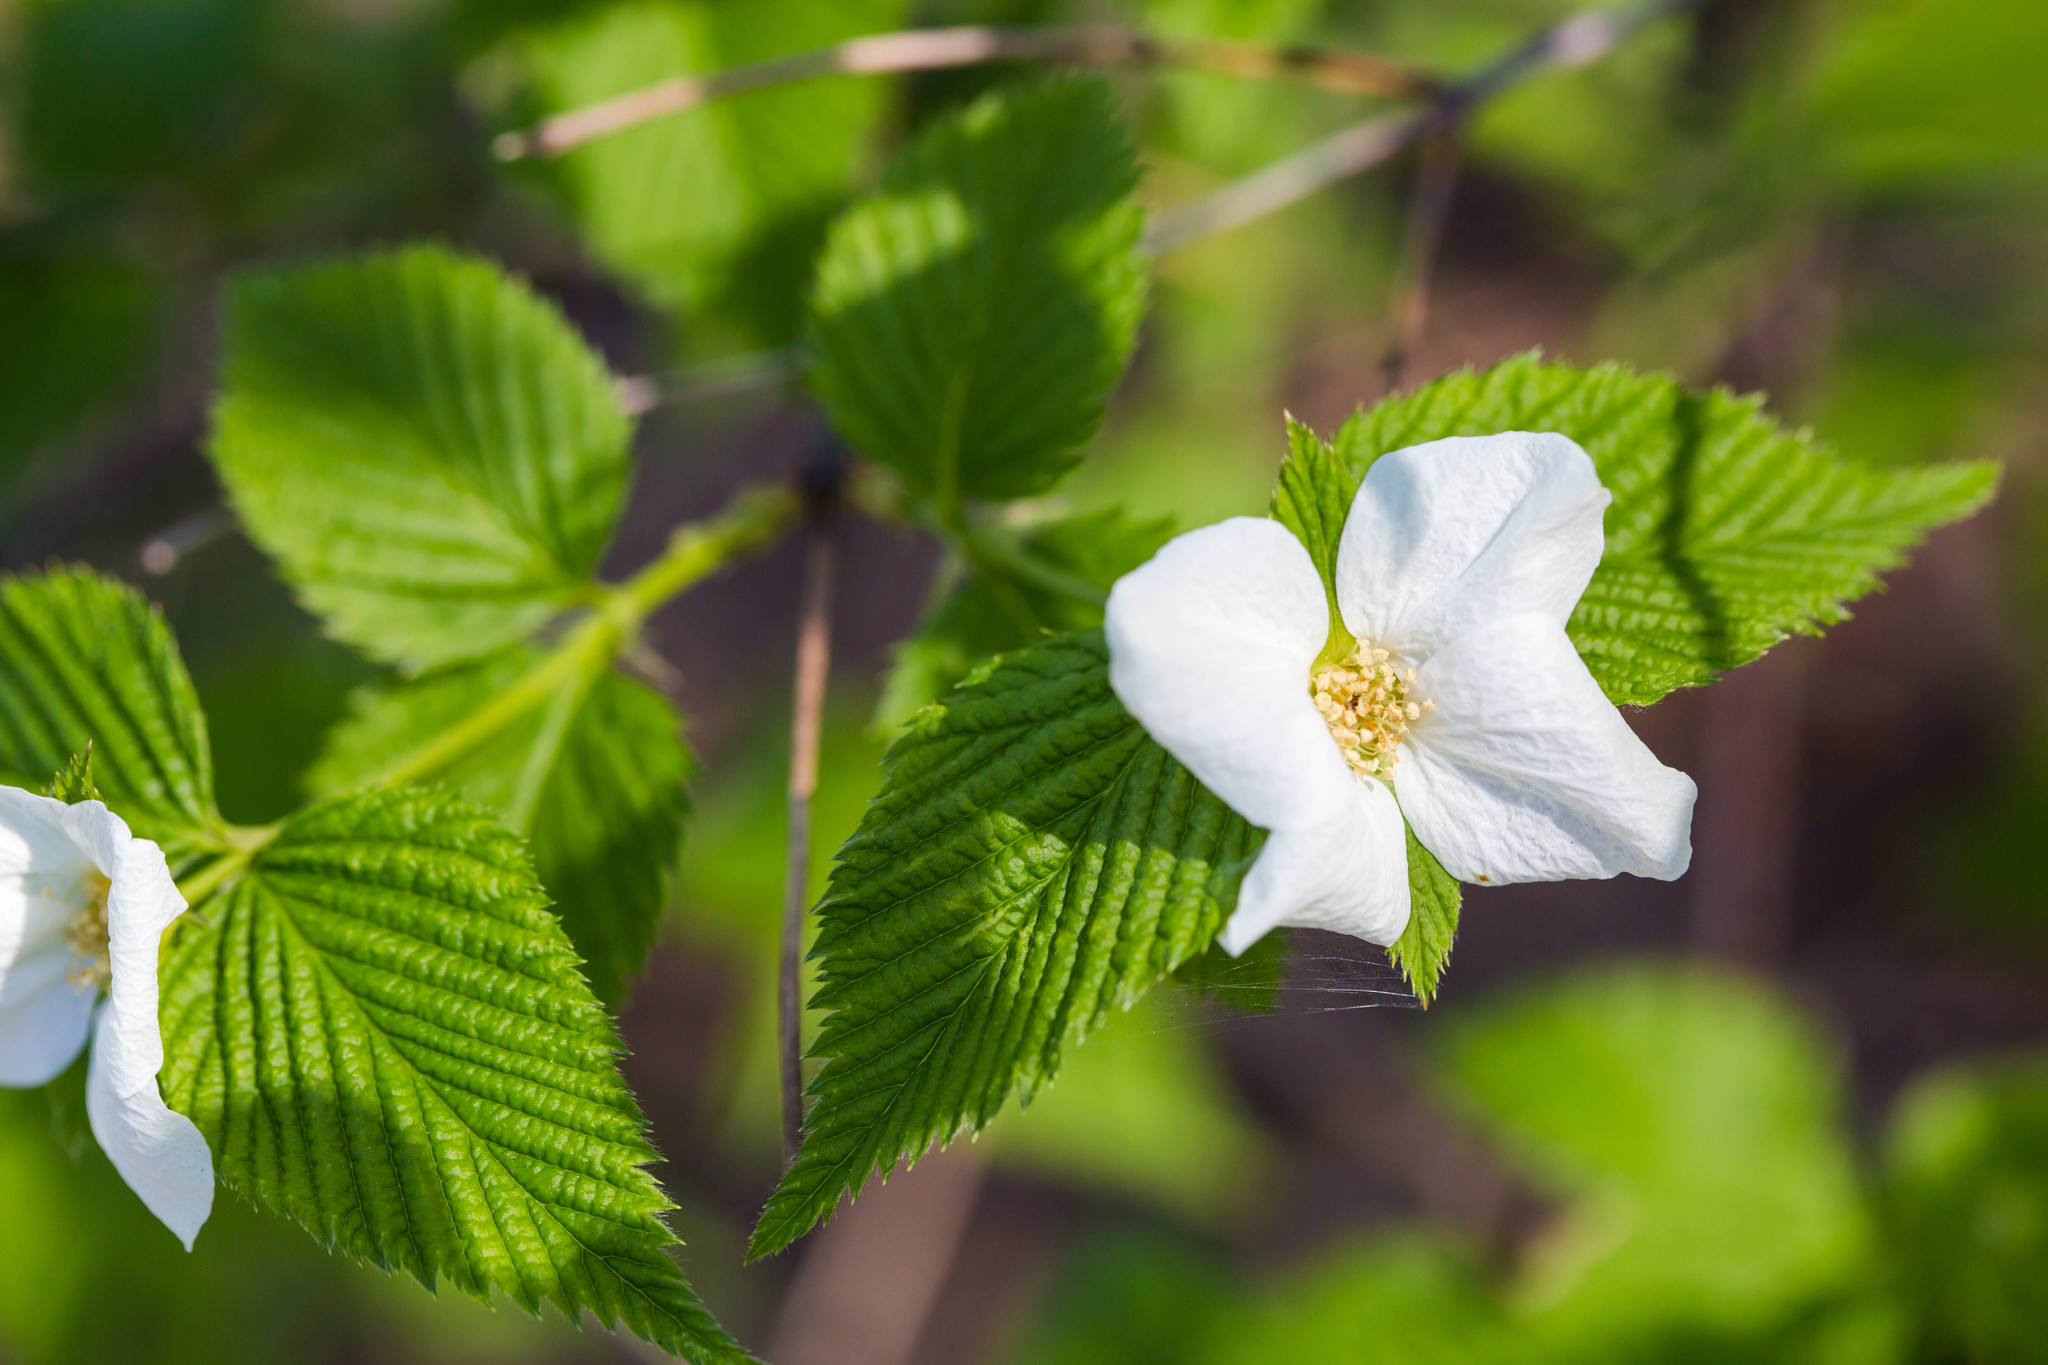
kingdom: Plantae
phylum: Tracheophyta
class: Magnoliopsida
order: Rosales
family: Rosaceae
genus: Rhodotypos
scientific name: Rhodotypos scandens
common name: Jetbead
